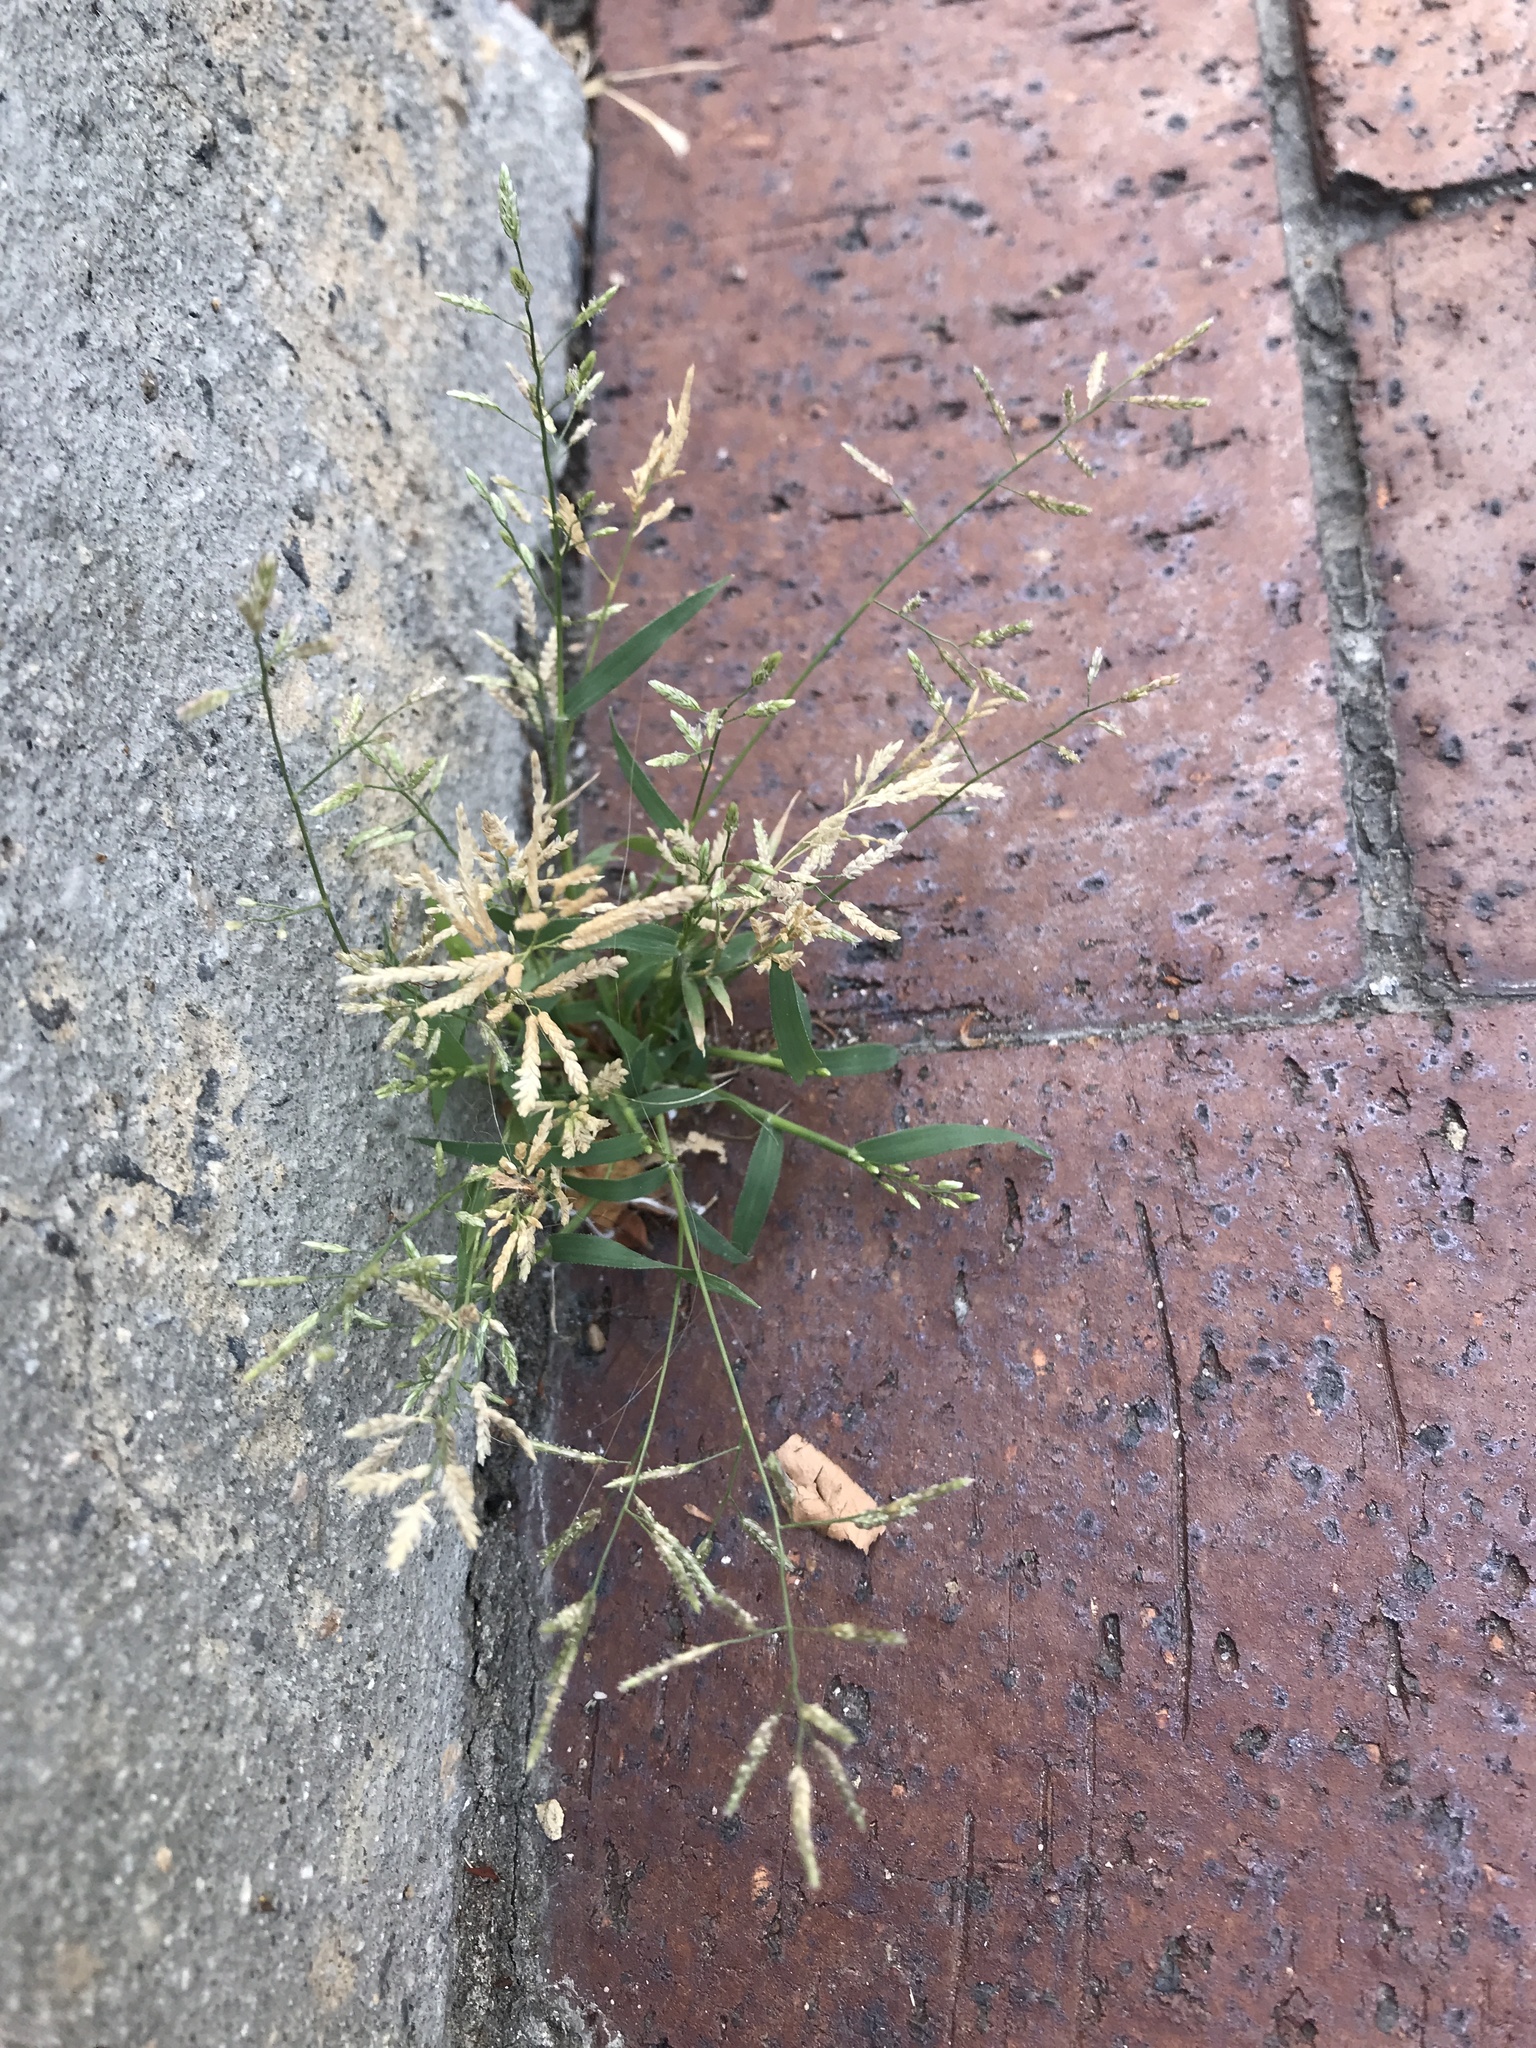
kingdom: Plantae
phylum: Tracheophyta
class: Liliopsida
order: Poales
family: Poaceae
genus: Eragrostis
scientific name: Eragrostis
